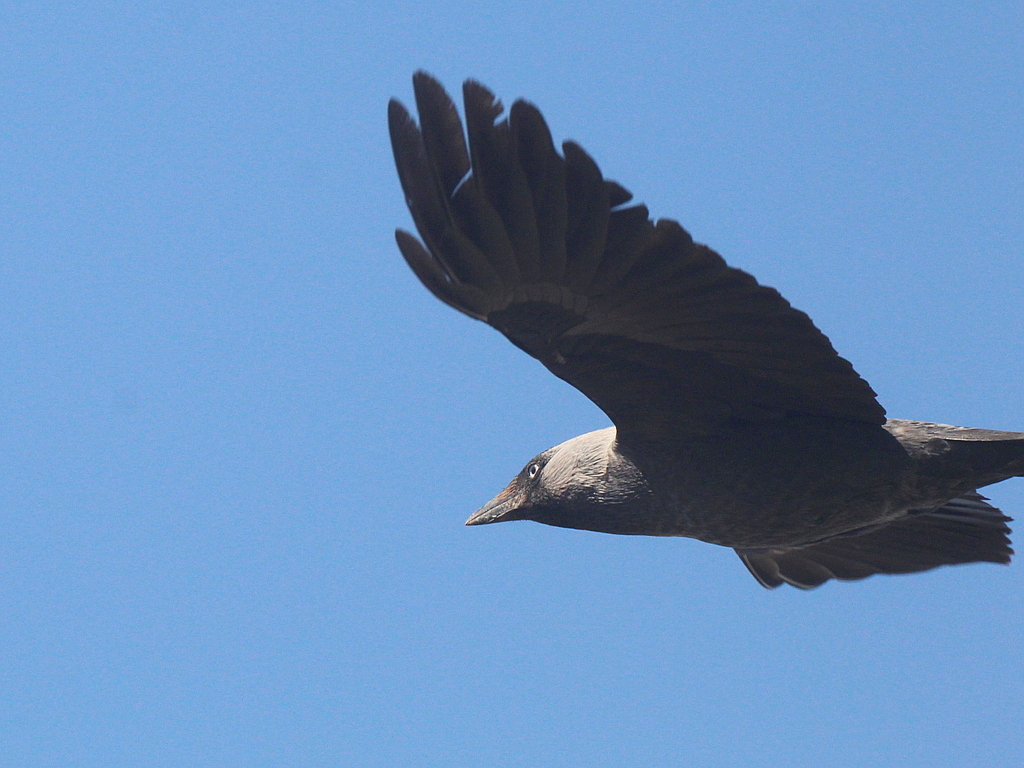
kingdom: Animalia
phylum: Chordata
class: Aves
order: Passeriformes
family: Corvidae
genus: Coloeus
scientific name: Coloeus monedula
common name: Western jackdaw
